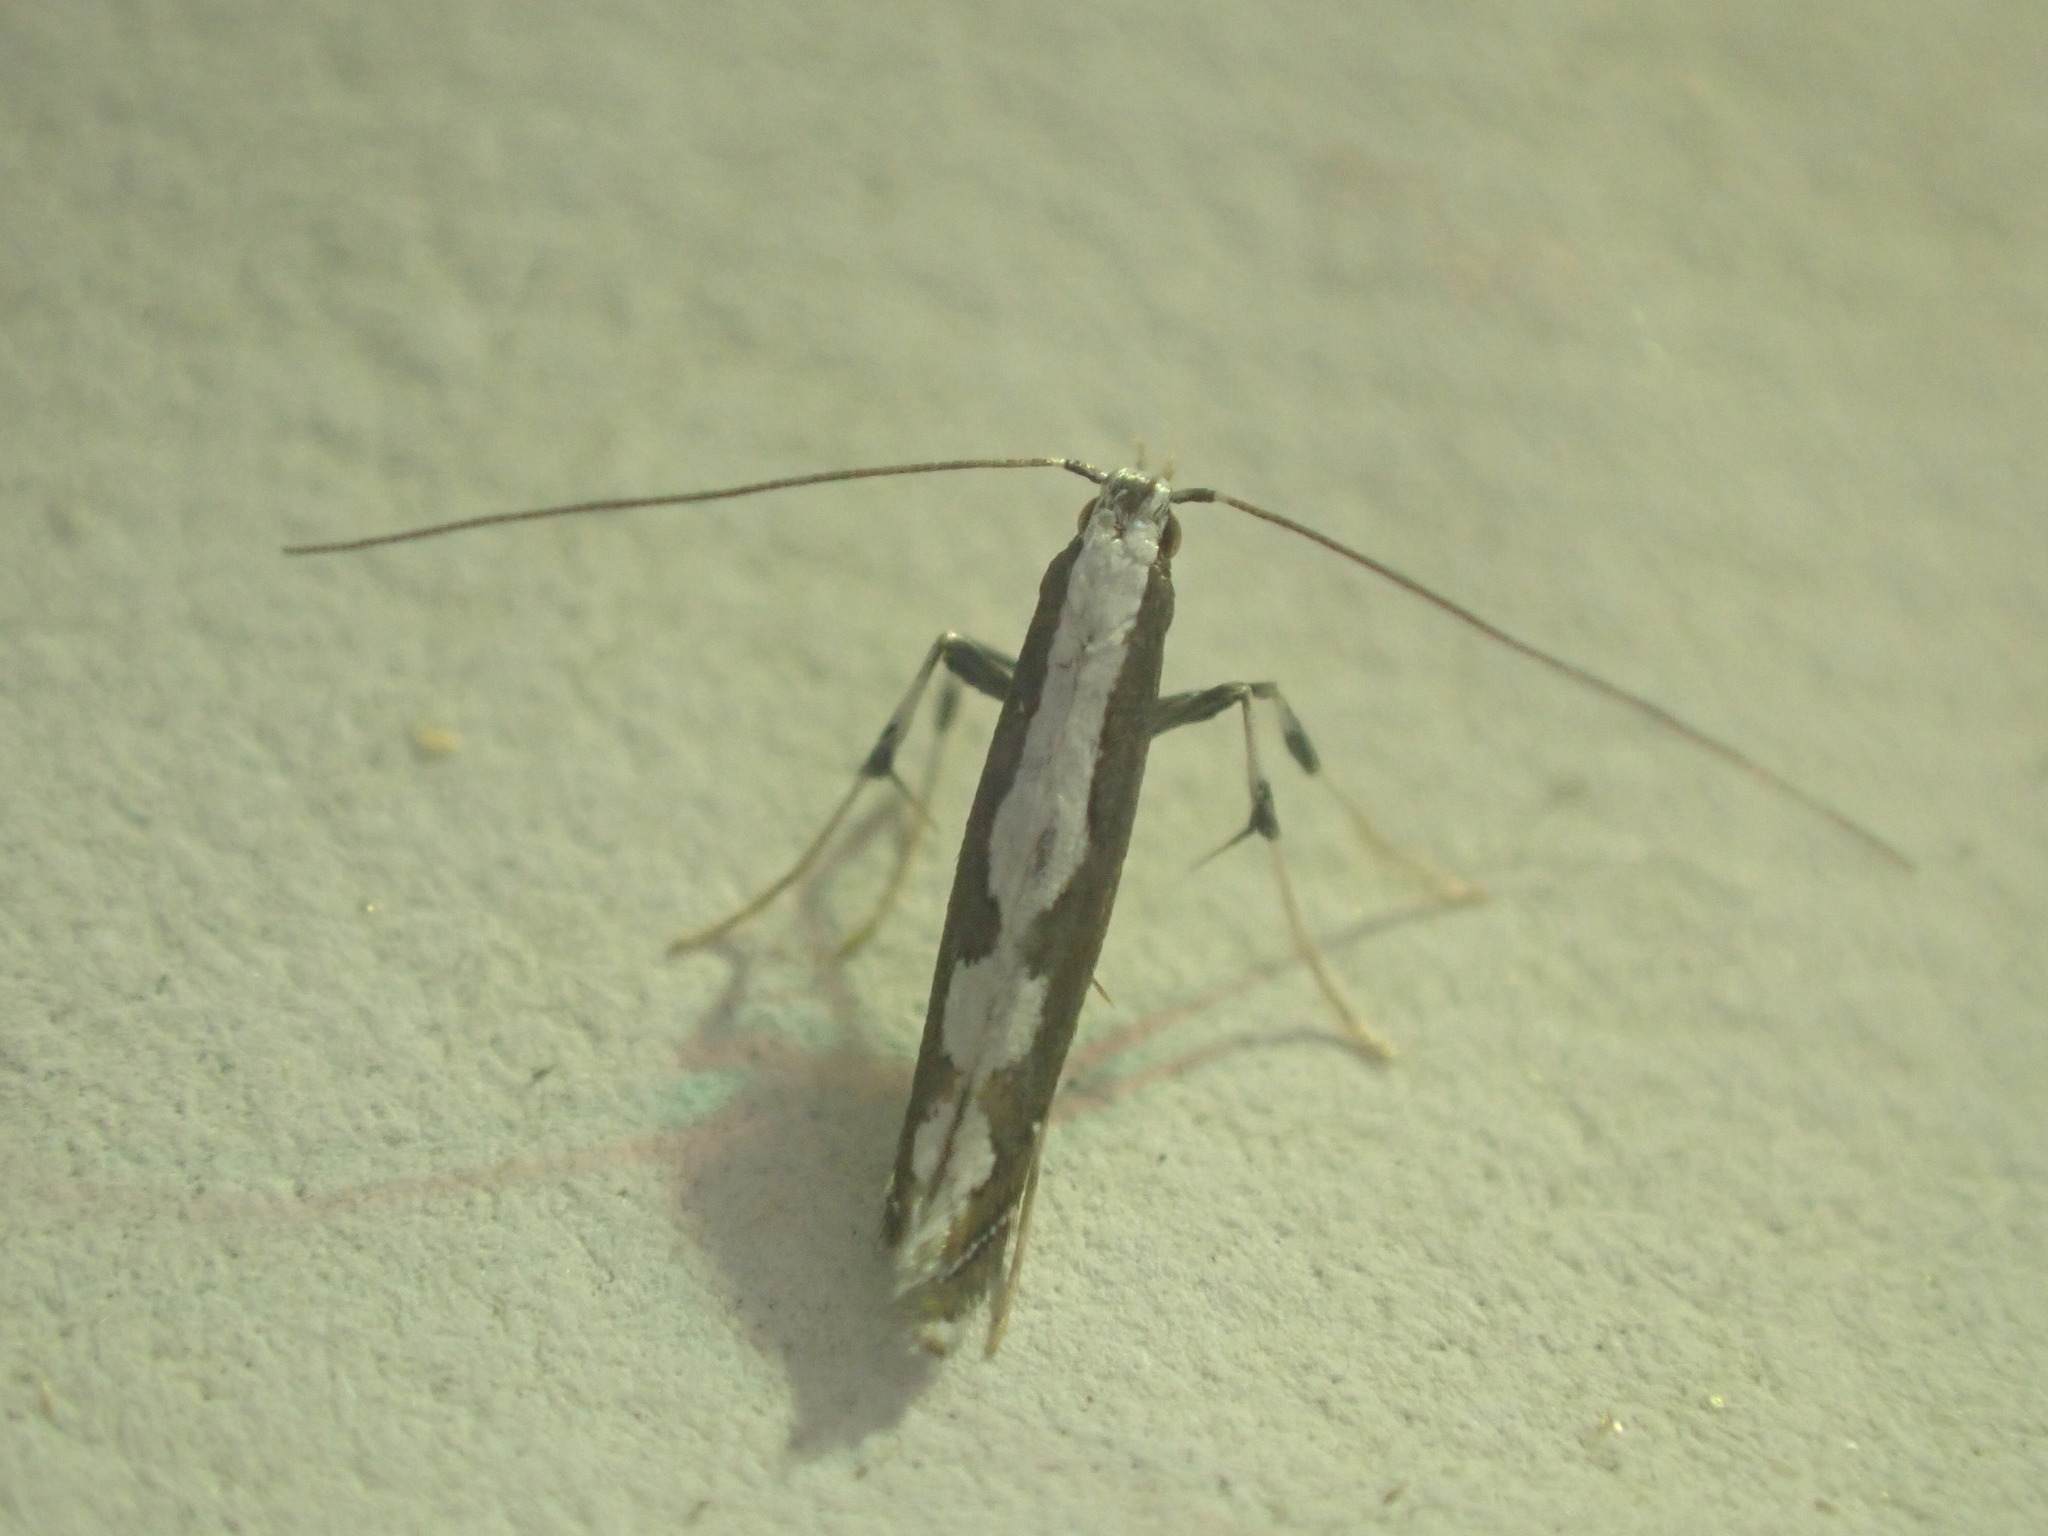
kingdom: Animalia
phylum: Arthropoda
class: Insecta
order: Lepidoptera
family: Gracillariidae
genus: Dialectica
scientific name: Dialectica scalariella
